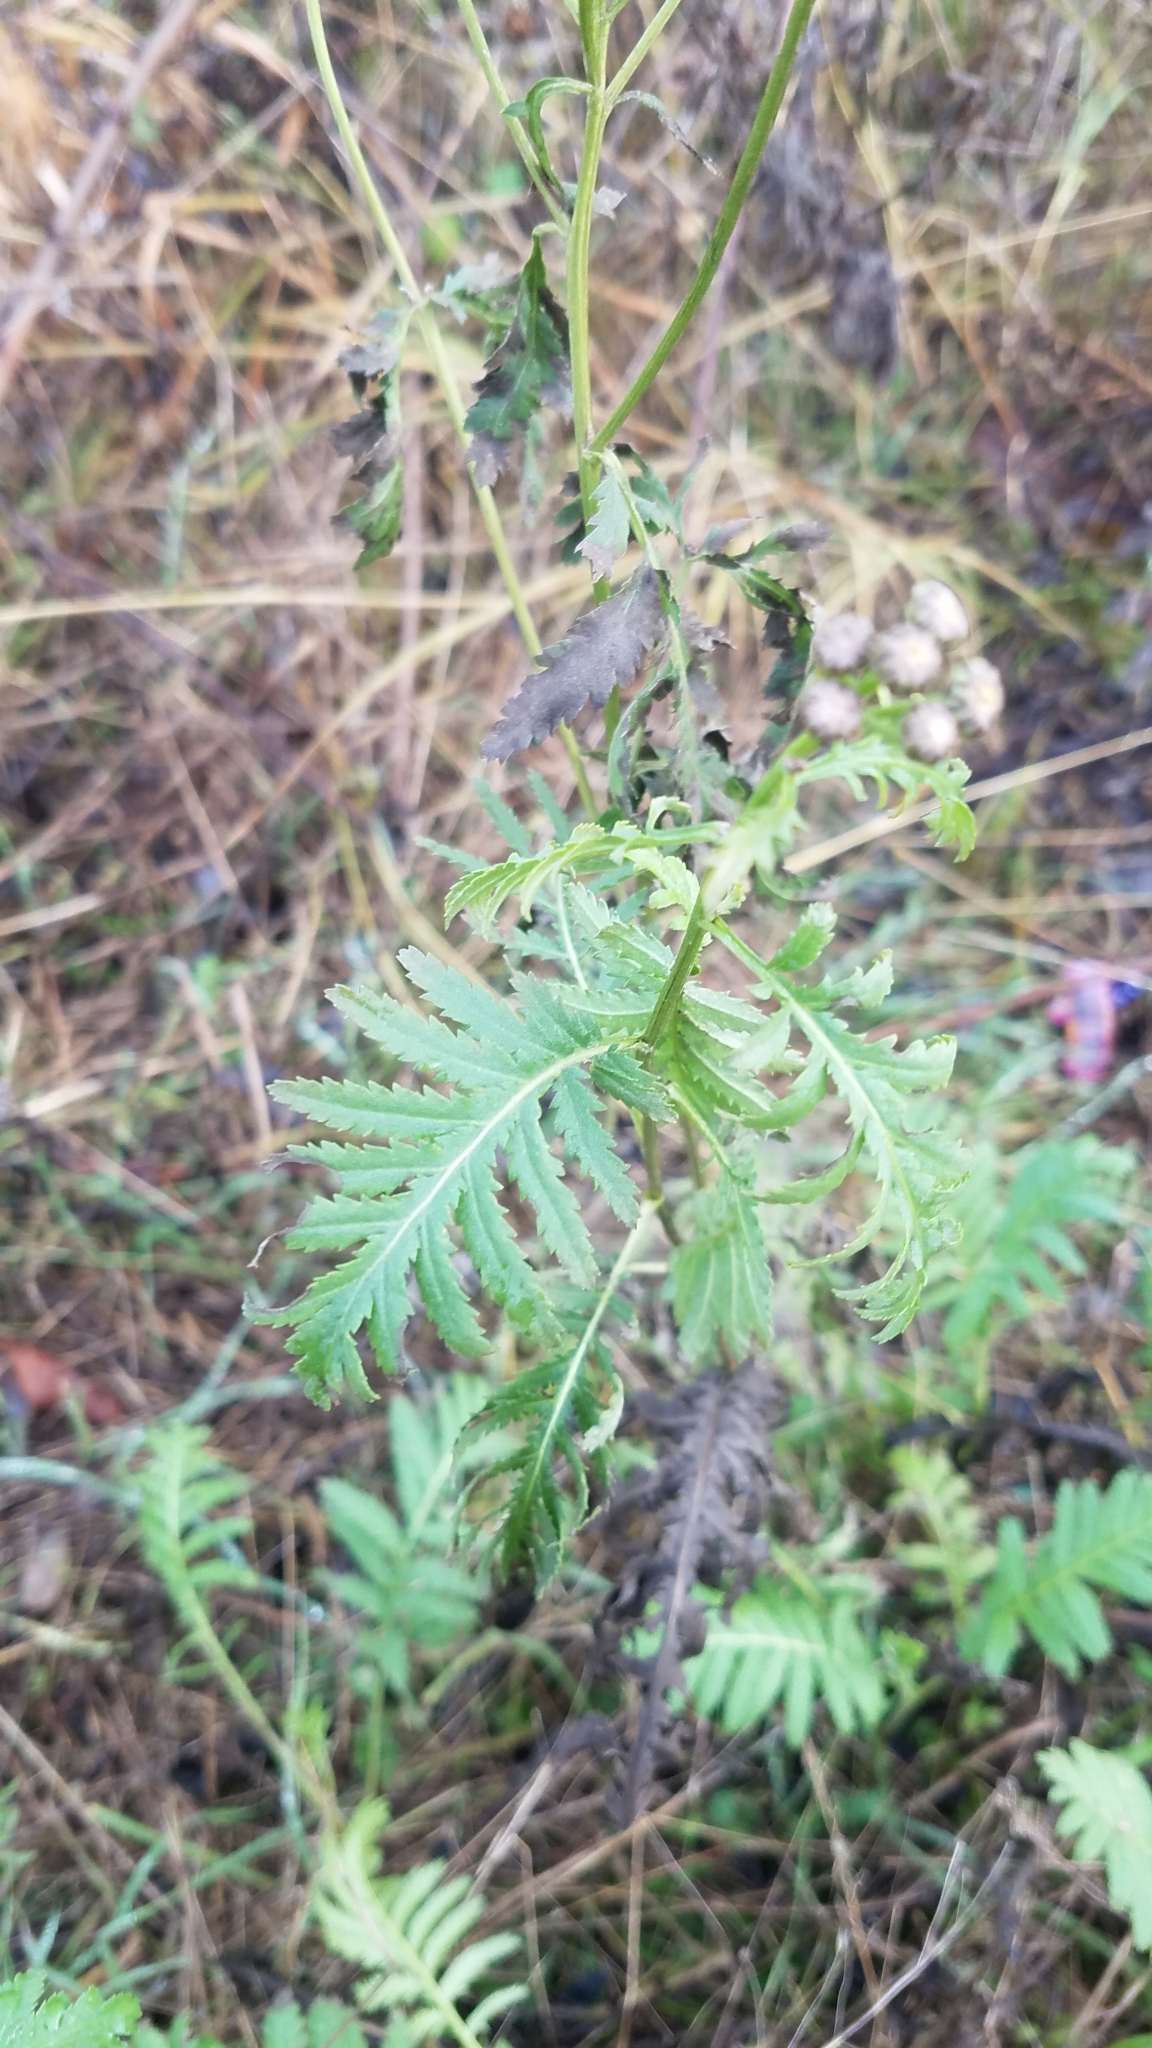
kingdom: Plantae
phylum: Tracheophyta
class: Magnoliopsida
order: Asterales
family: Asteraceae
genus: Tanacetum
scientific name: Tanacetum vulgare
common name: Common tansy
